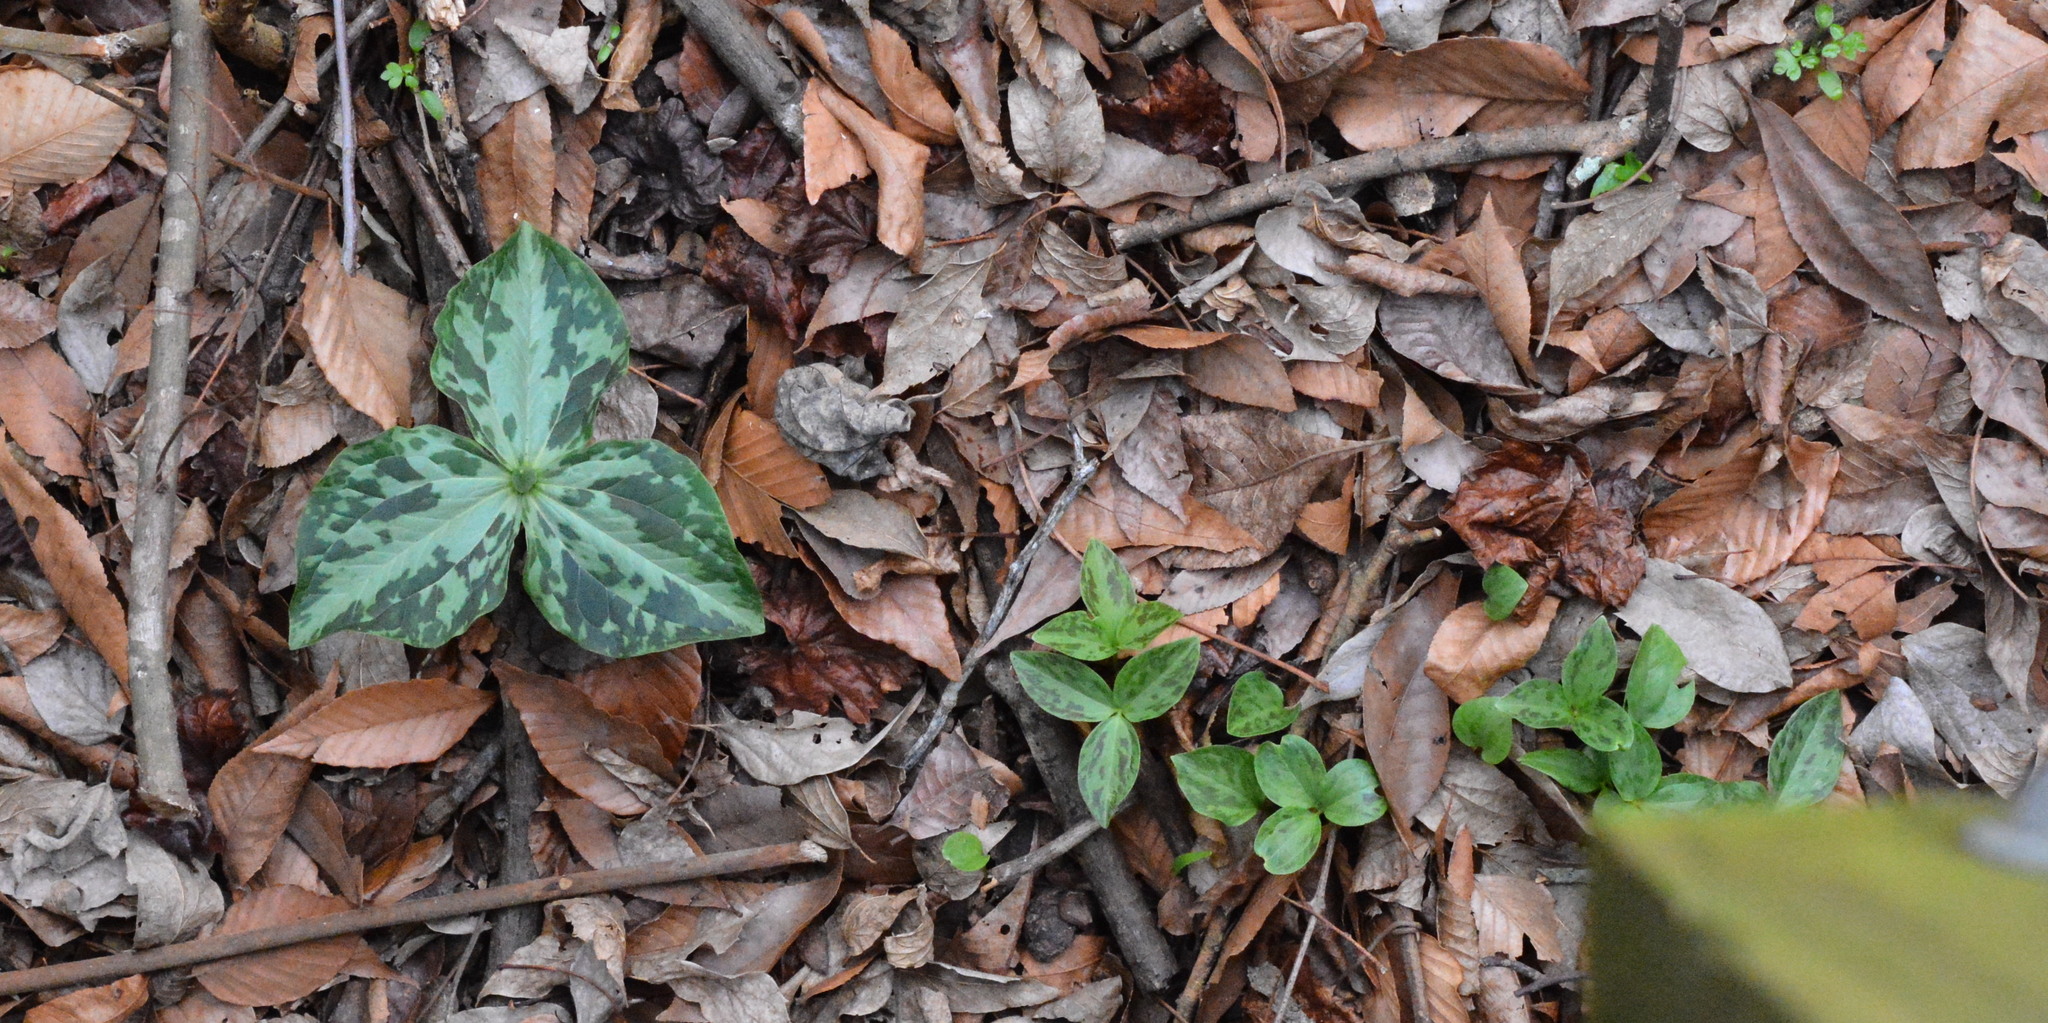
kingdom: Plantae
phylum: Tracheophyta
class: Liliopsida
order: Liliales
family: Melanthiaceae
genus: Trillium
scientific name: Trillium foetidissimum
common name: Mississippi river trillium
